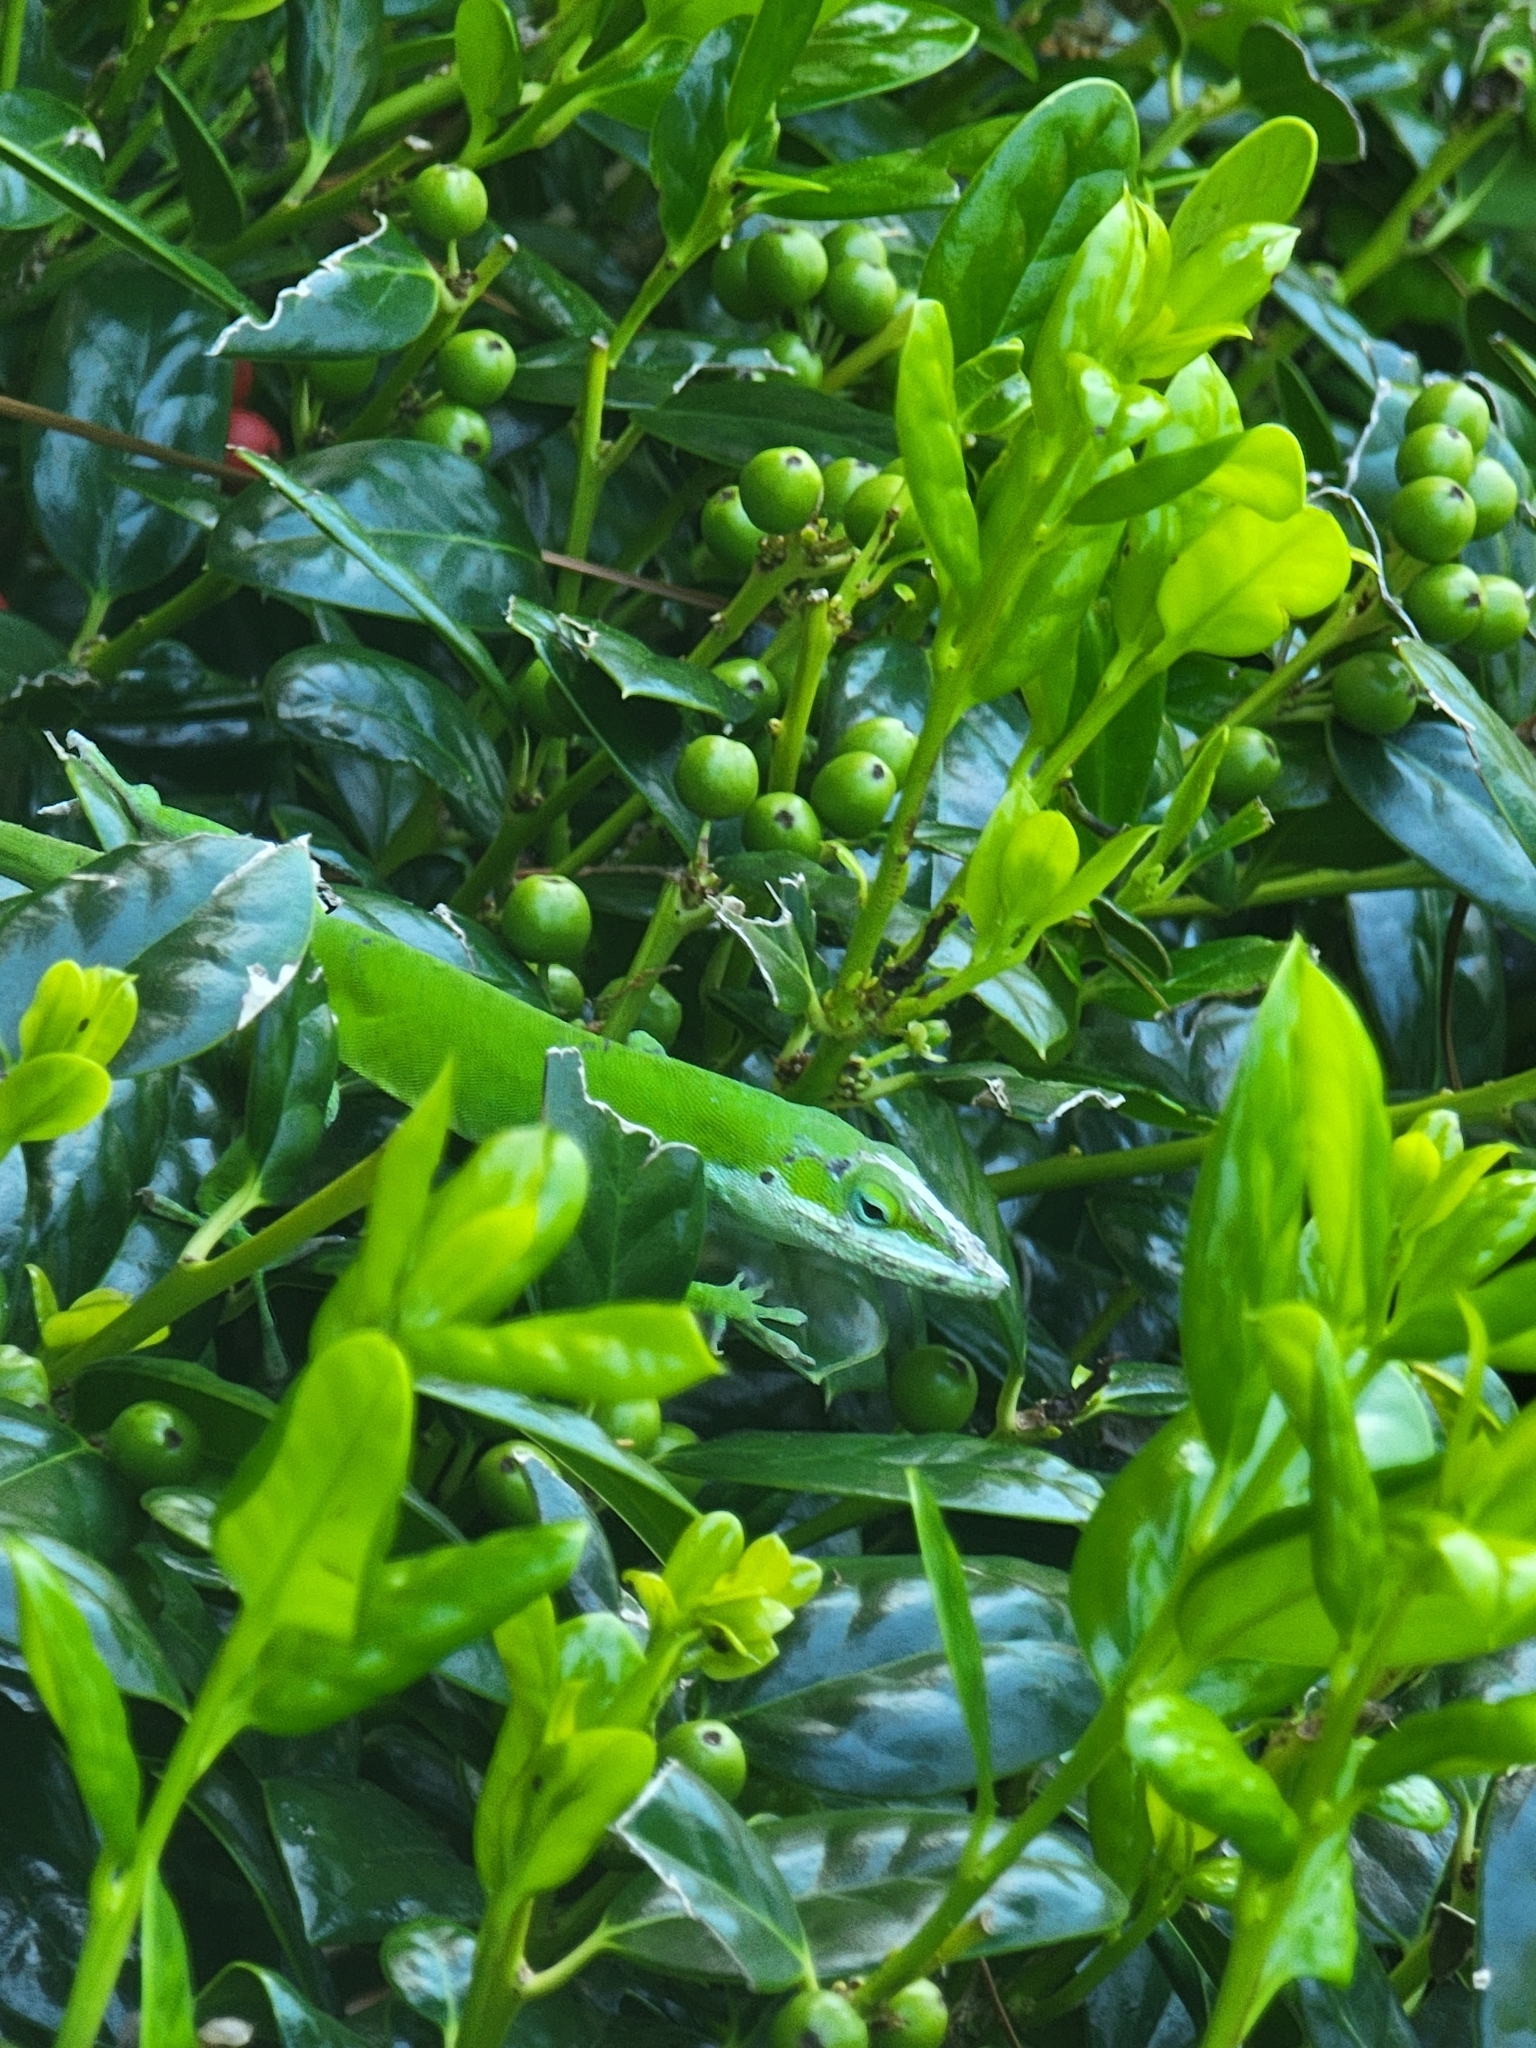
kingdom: Animalia
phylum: Chordata
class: Squamata
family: Dactyloidae
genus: Anolis
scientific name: Anolis carolinensis
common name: Green anole
